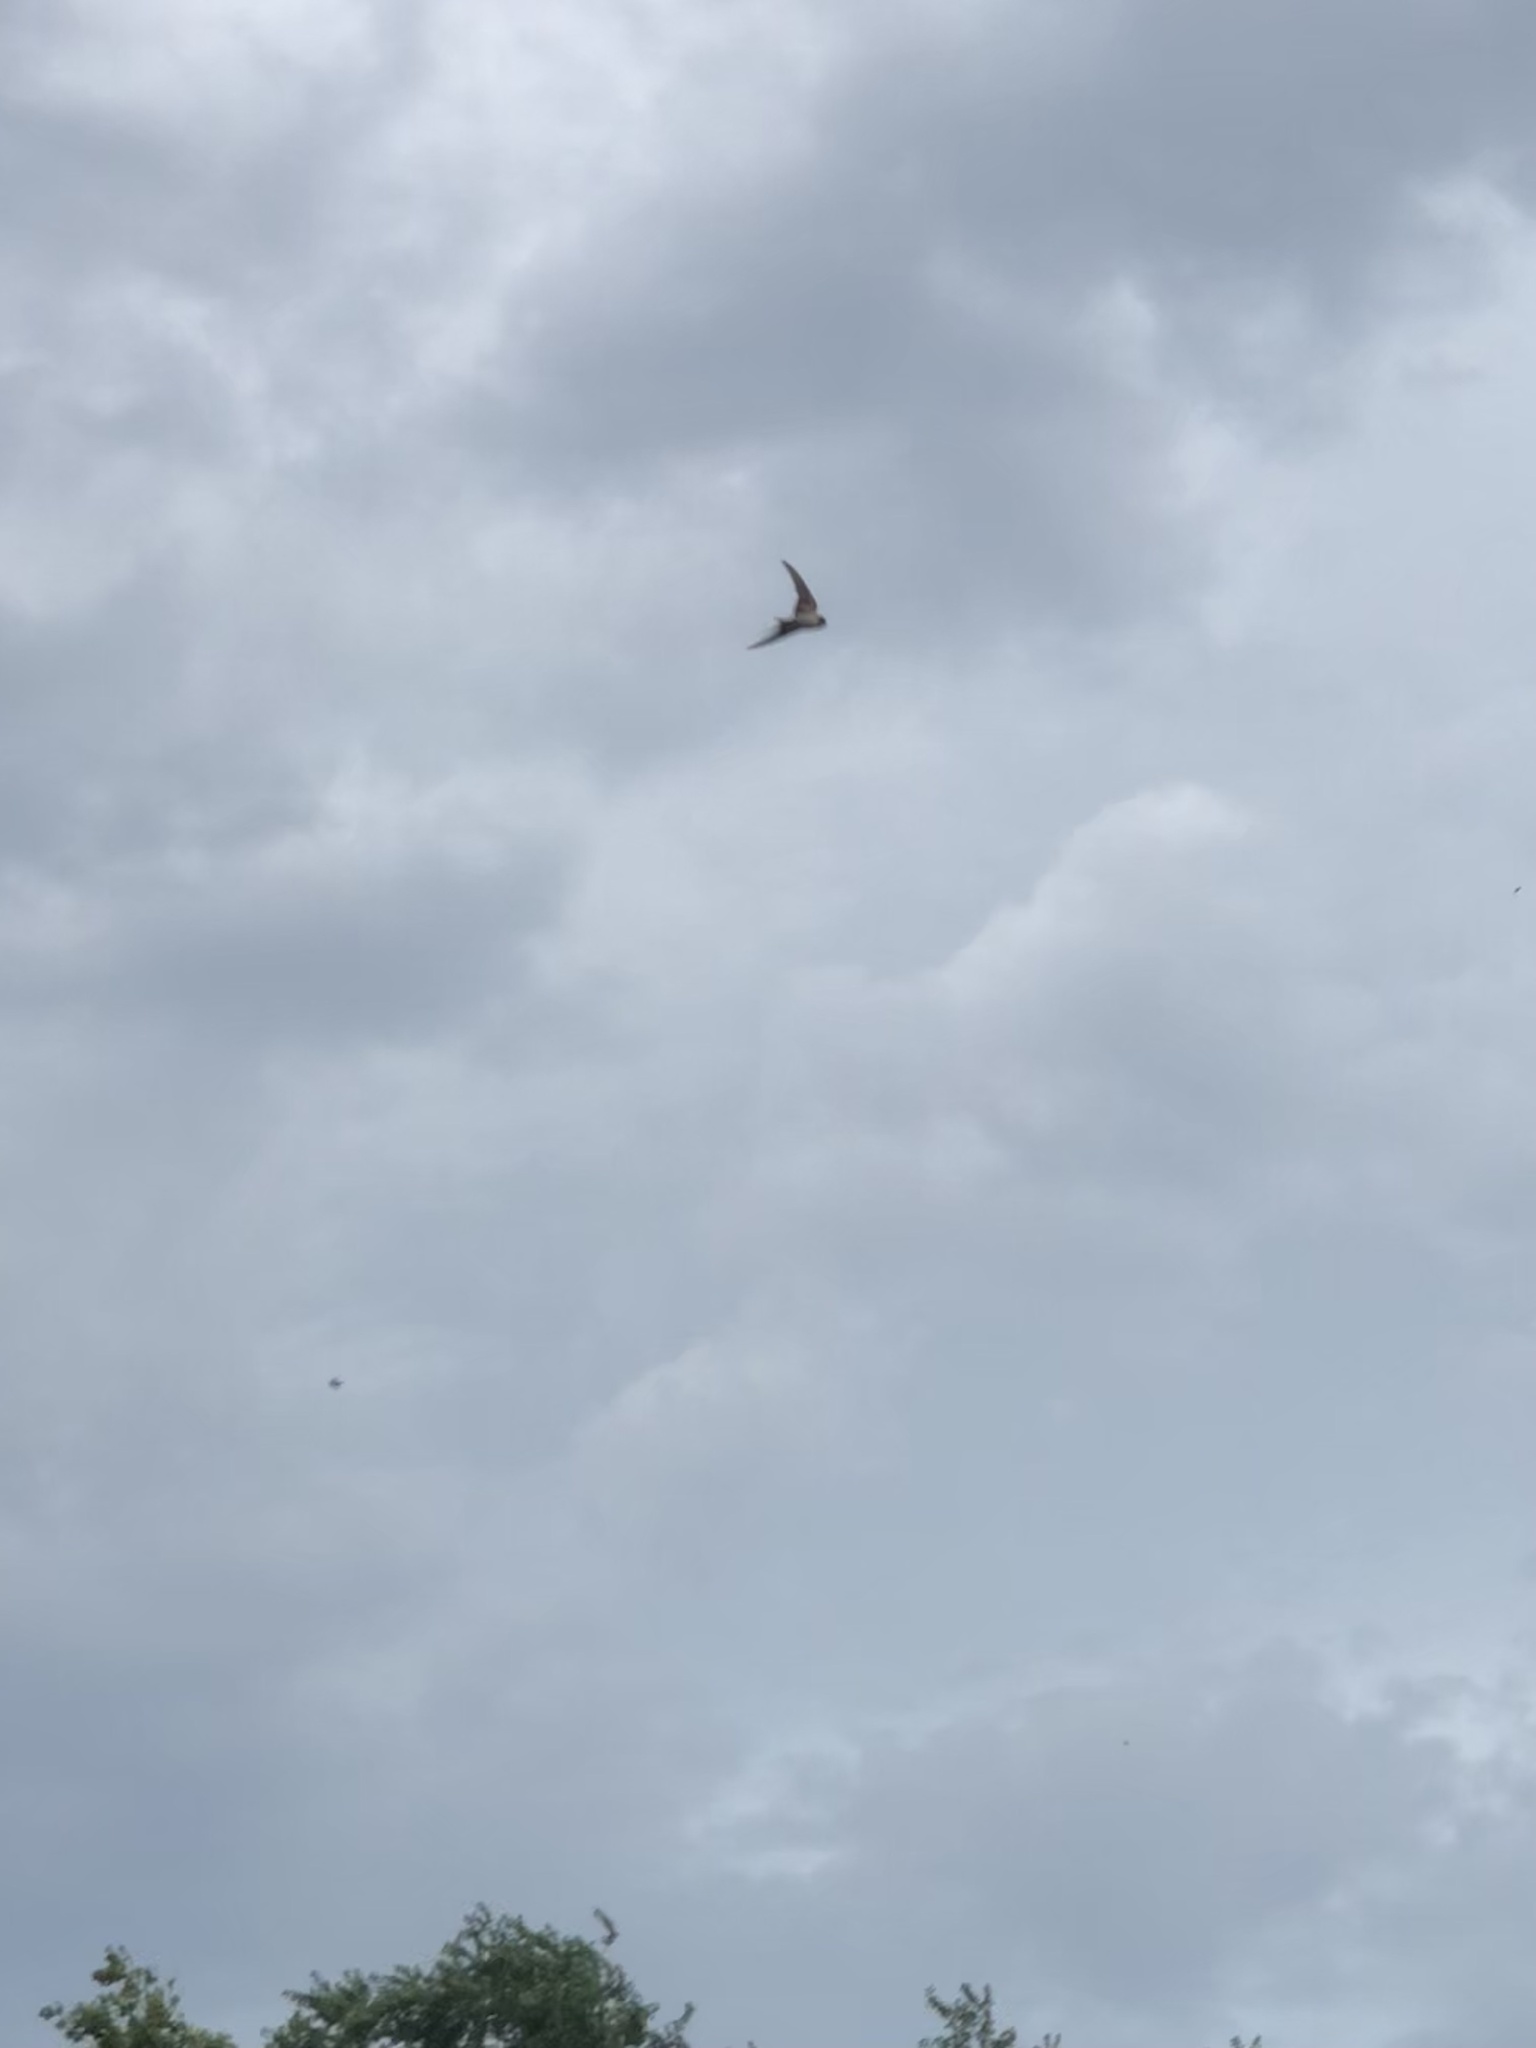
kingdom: Animalia
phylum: Chordata
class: Aves
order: Passeriformes
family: Hirundinidae
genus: Hirundo
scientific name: Hirundo rustica
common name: Barn swallow
